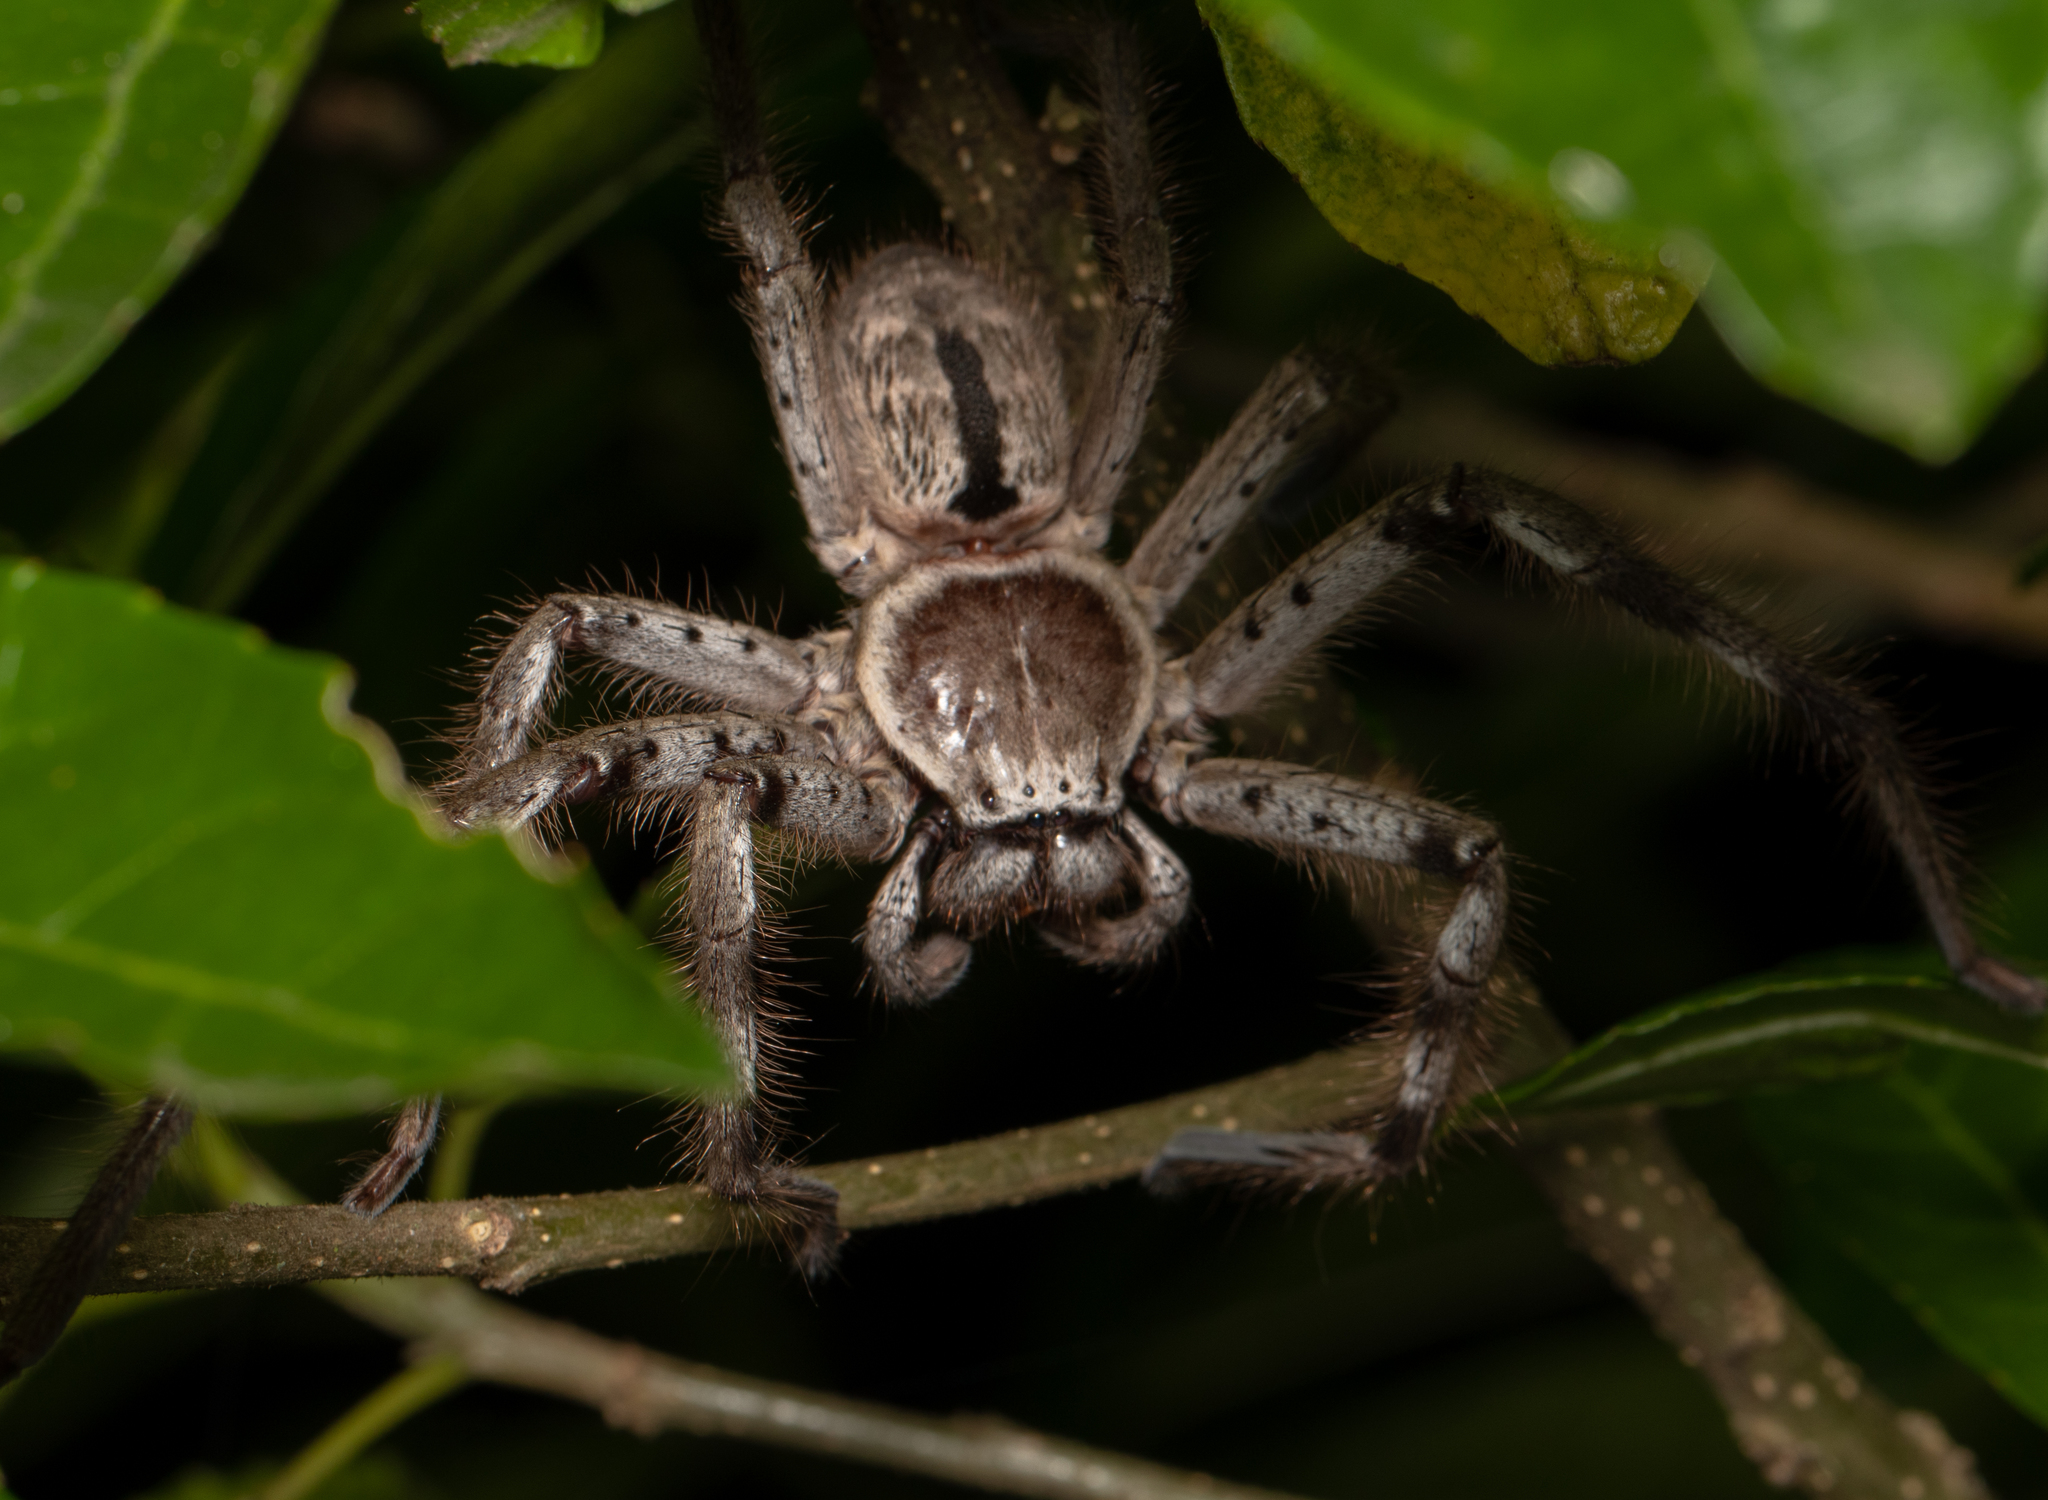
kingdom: Animalia
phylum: Arthropoda
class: Arachnida
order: Araneae
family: Sparassidae
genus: Holconia
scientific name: Holconia immanis
